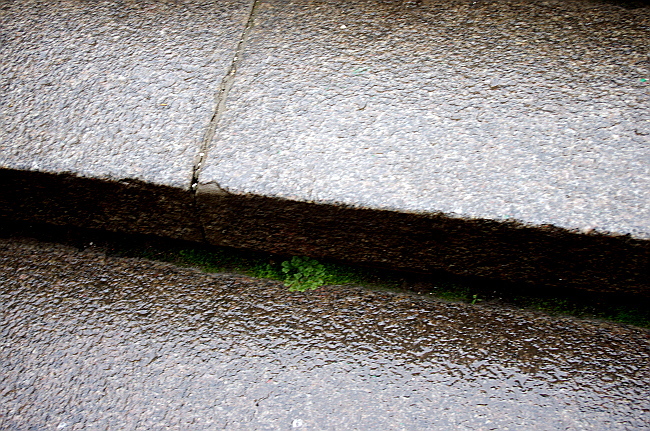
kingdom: Plantae
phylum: Marchantiophyta
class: Marchantiopsida
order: Marchantiales
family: Marchantiaceae
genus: Marchantia
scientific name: Marchantia polymorpha
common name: Common liverwort
